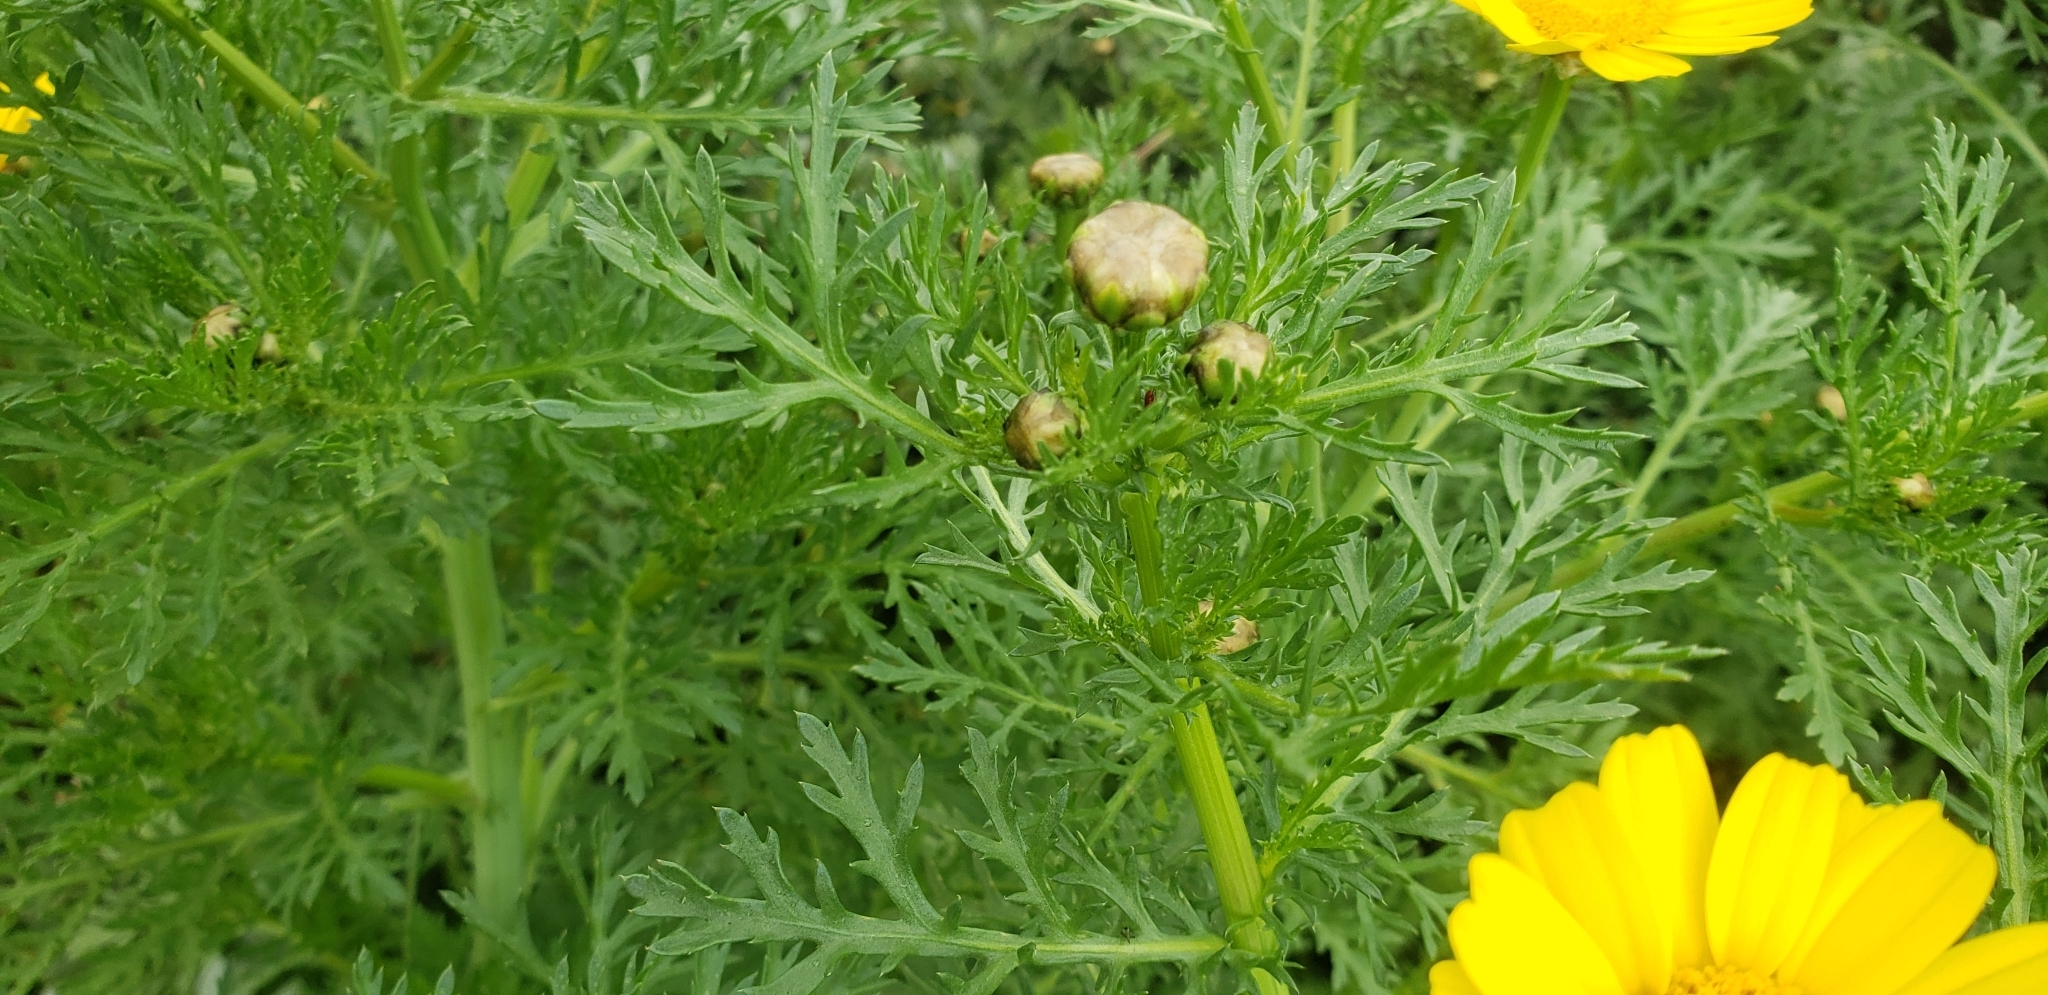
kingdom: Plantae
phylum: Tracheophyta
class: Magnoliopsida
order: Asterales
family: Asteraceae
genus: Glebionis
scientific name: Glebionis coronaria
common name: Crowndaisy
